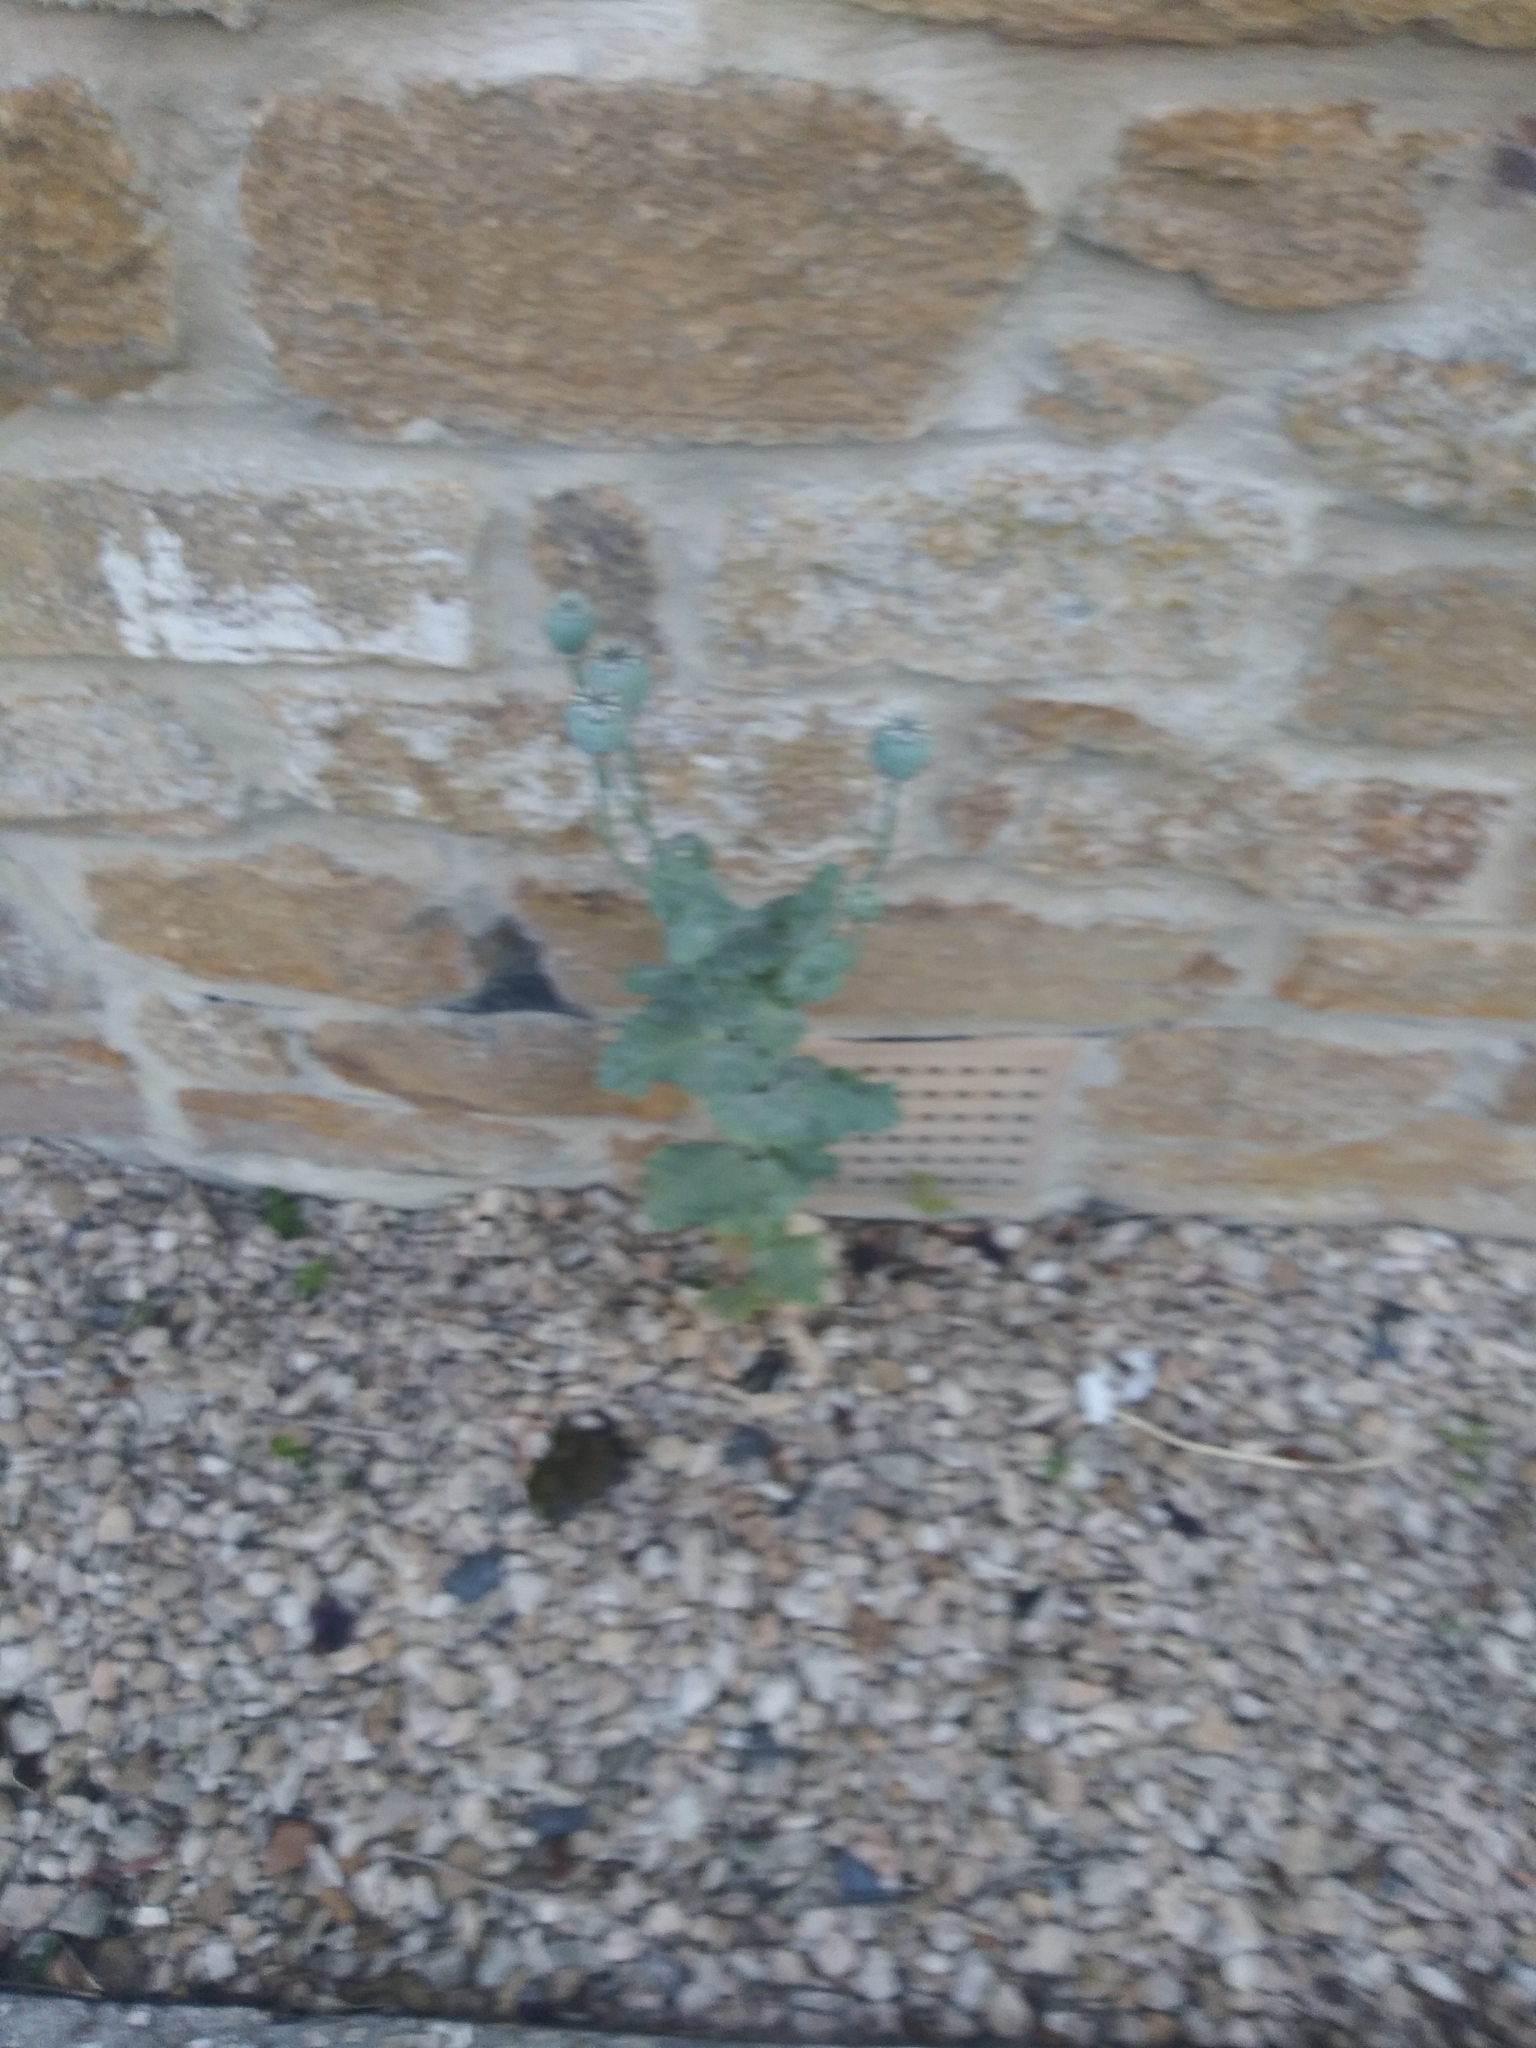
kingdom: Plantae
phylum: Tracheophyta
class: Magnoliopsida
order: Ranunculales
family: Papaveraceae
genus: Papaver
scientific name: Papaver somniferum
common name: Opium poppy
